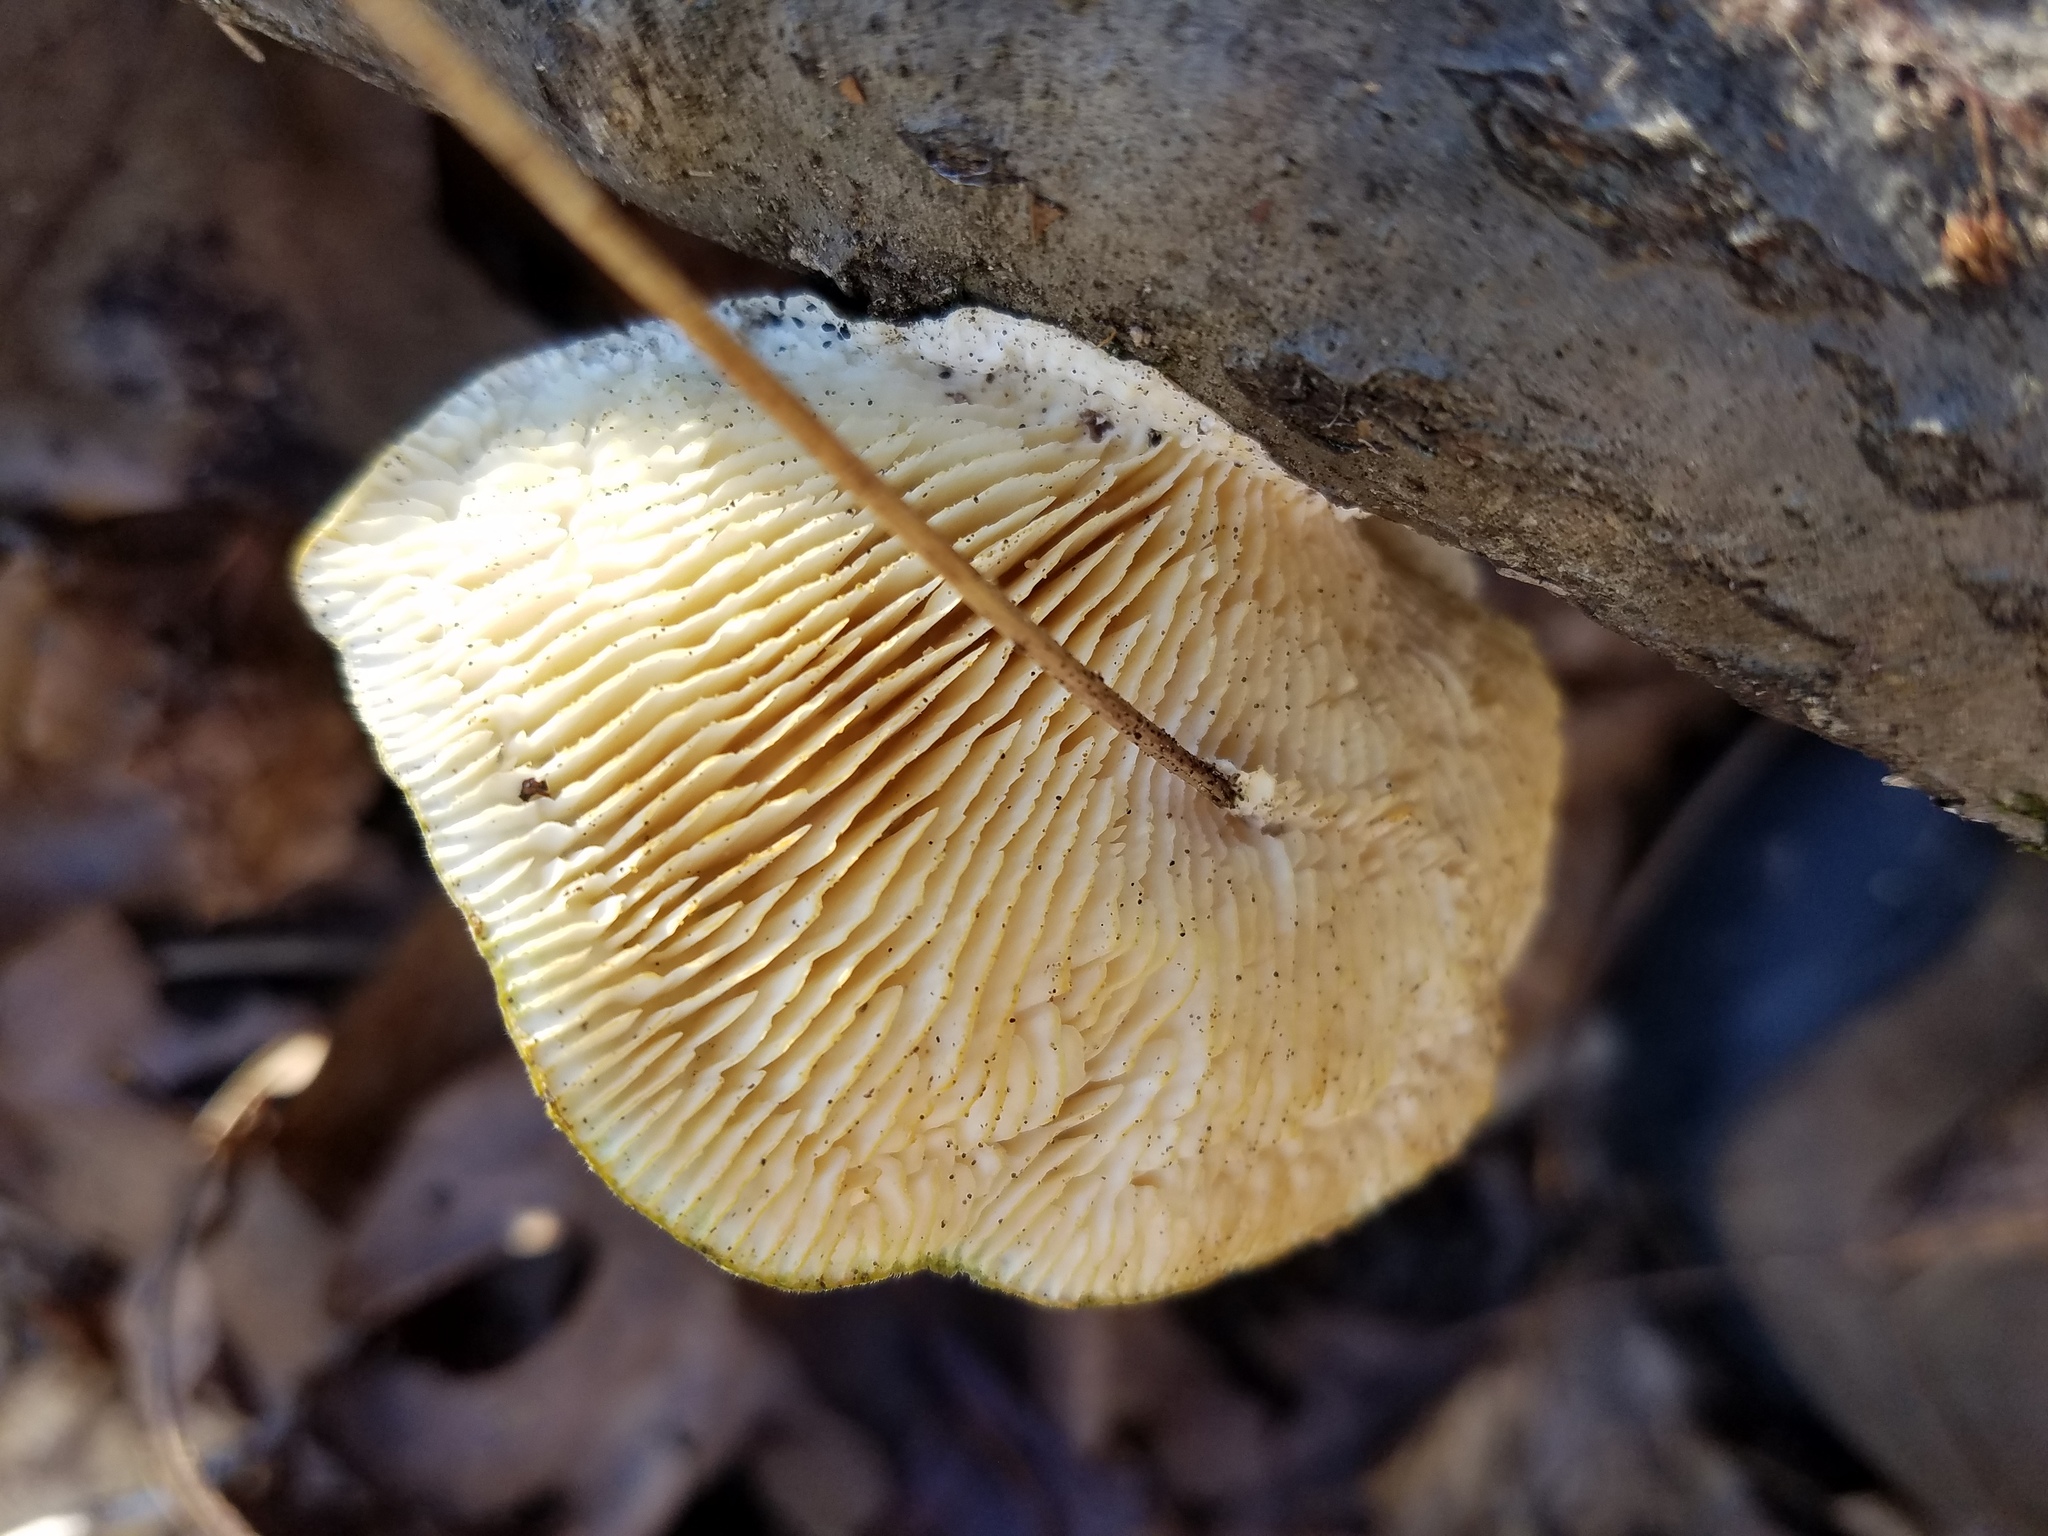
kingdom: Fungi
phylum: Basidiomycota
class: Agaricomycetes
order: Polyporales
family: Polyporaceae
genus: Lenzites
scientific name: Lenzites betulinus
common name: Birch mazegill
